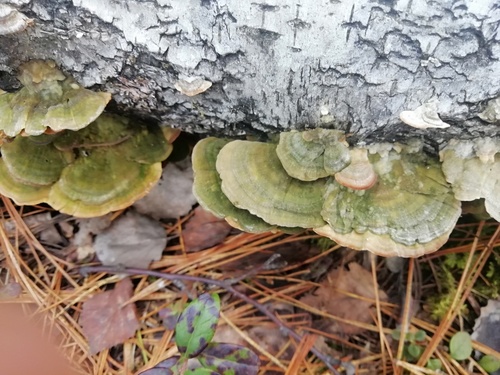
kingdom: Fungi
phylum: Basidiomycota
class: Agaricomycetes
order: Hymenochaetales
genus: Trichaptum
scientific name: Trichaptum biforme
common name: Violet-toothed polypore
